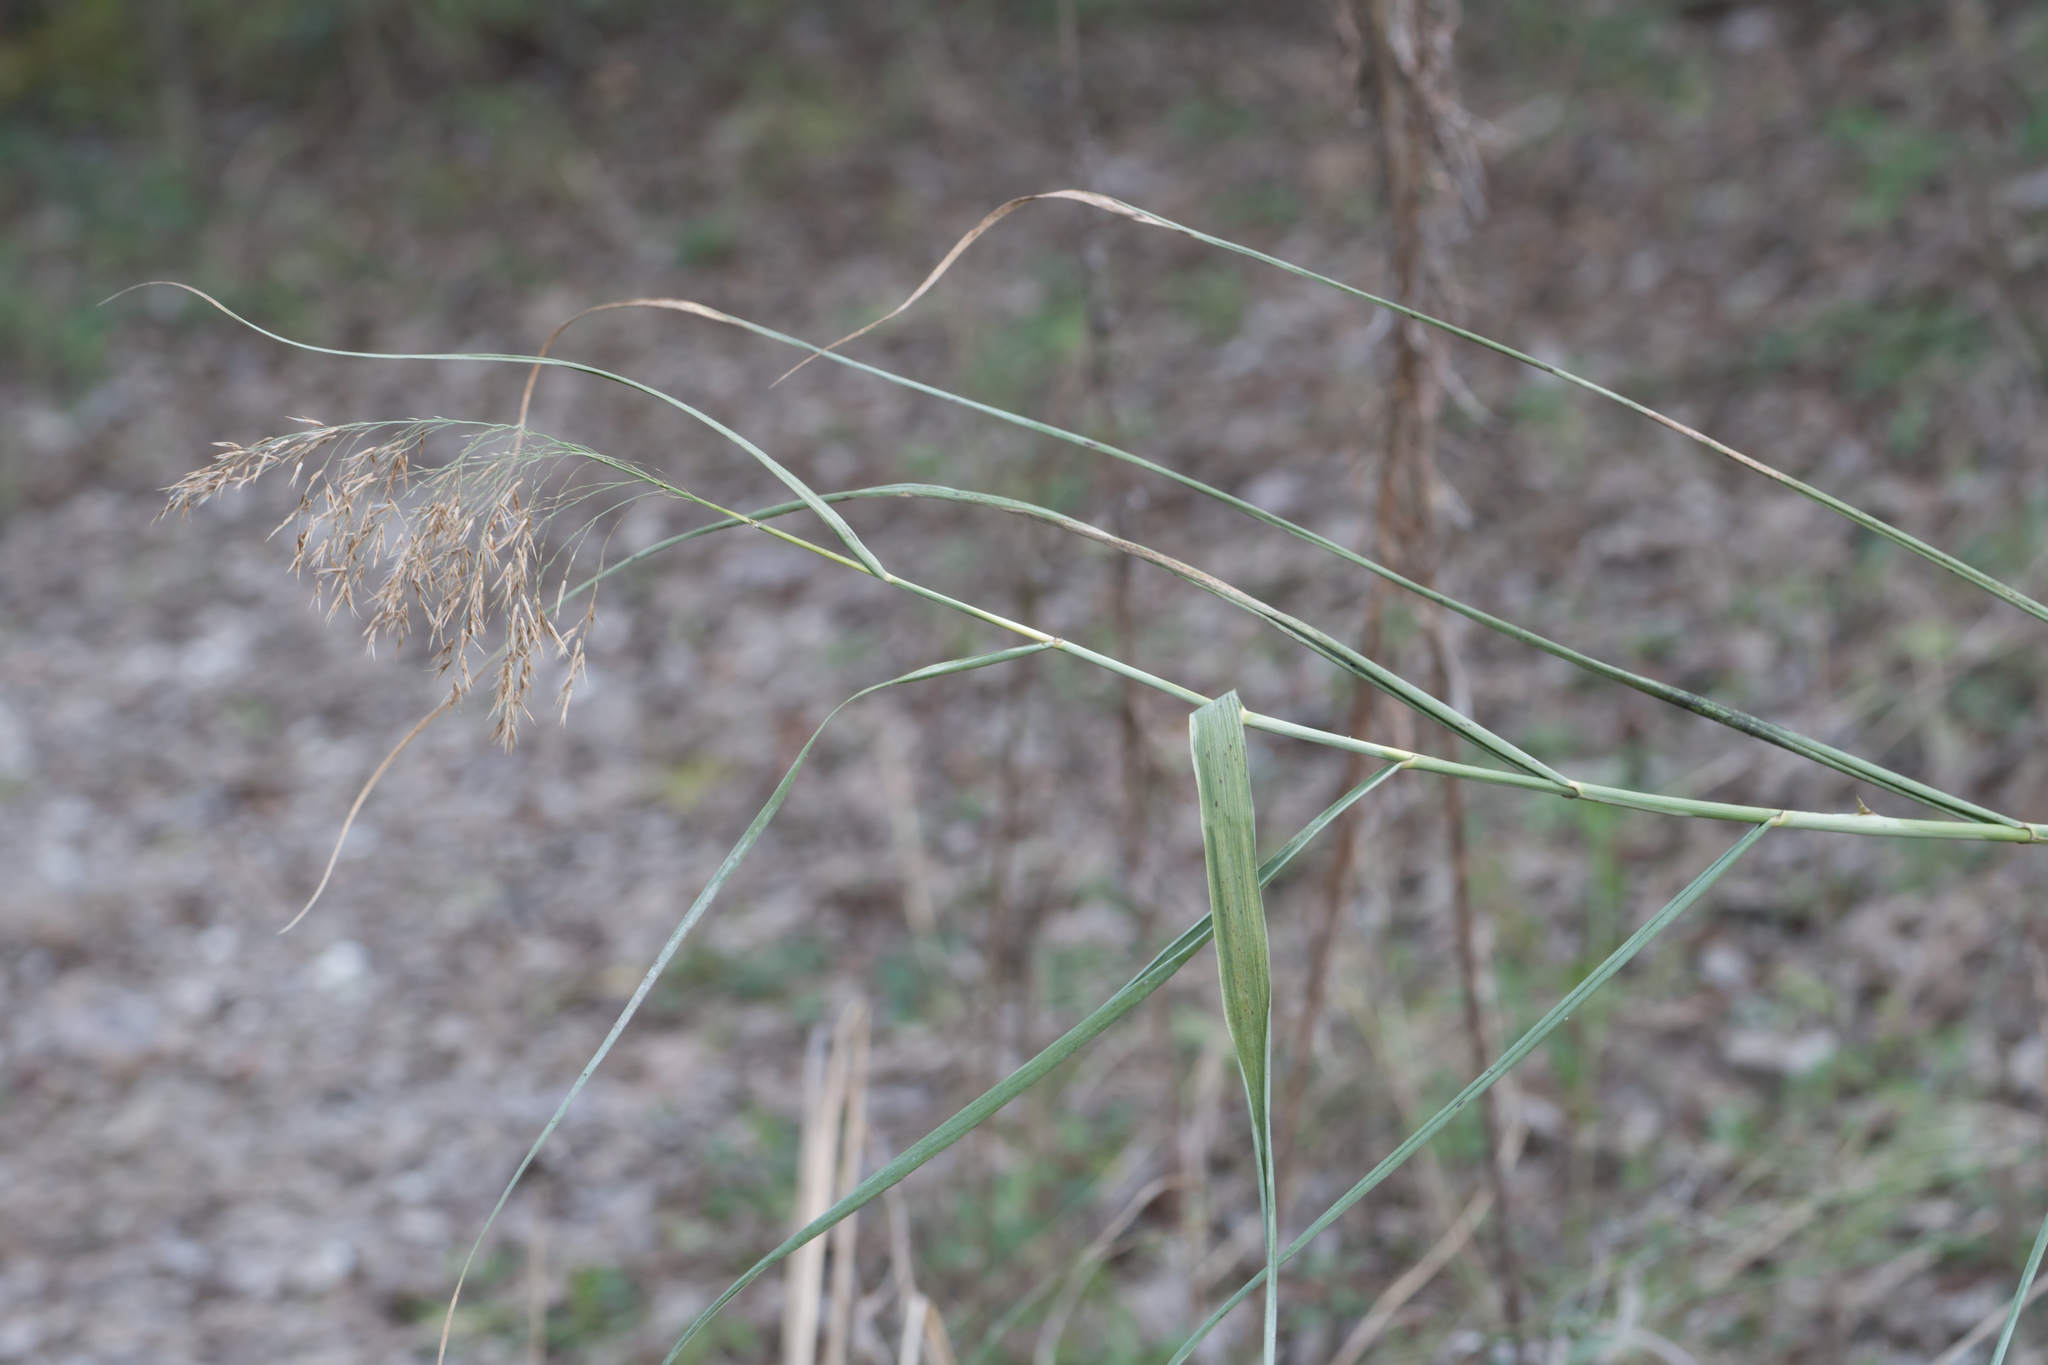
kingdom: Plantae
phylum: Tracheophyta
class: Liliopsida
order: Poales
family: Poaceae
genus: Phragmites
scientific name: Phragmites australis
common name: Common reed
